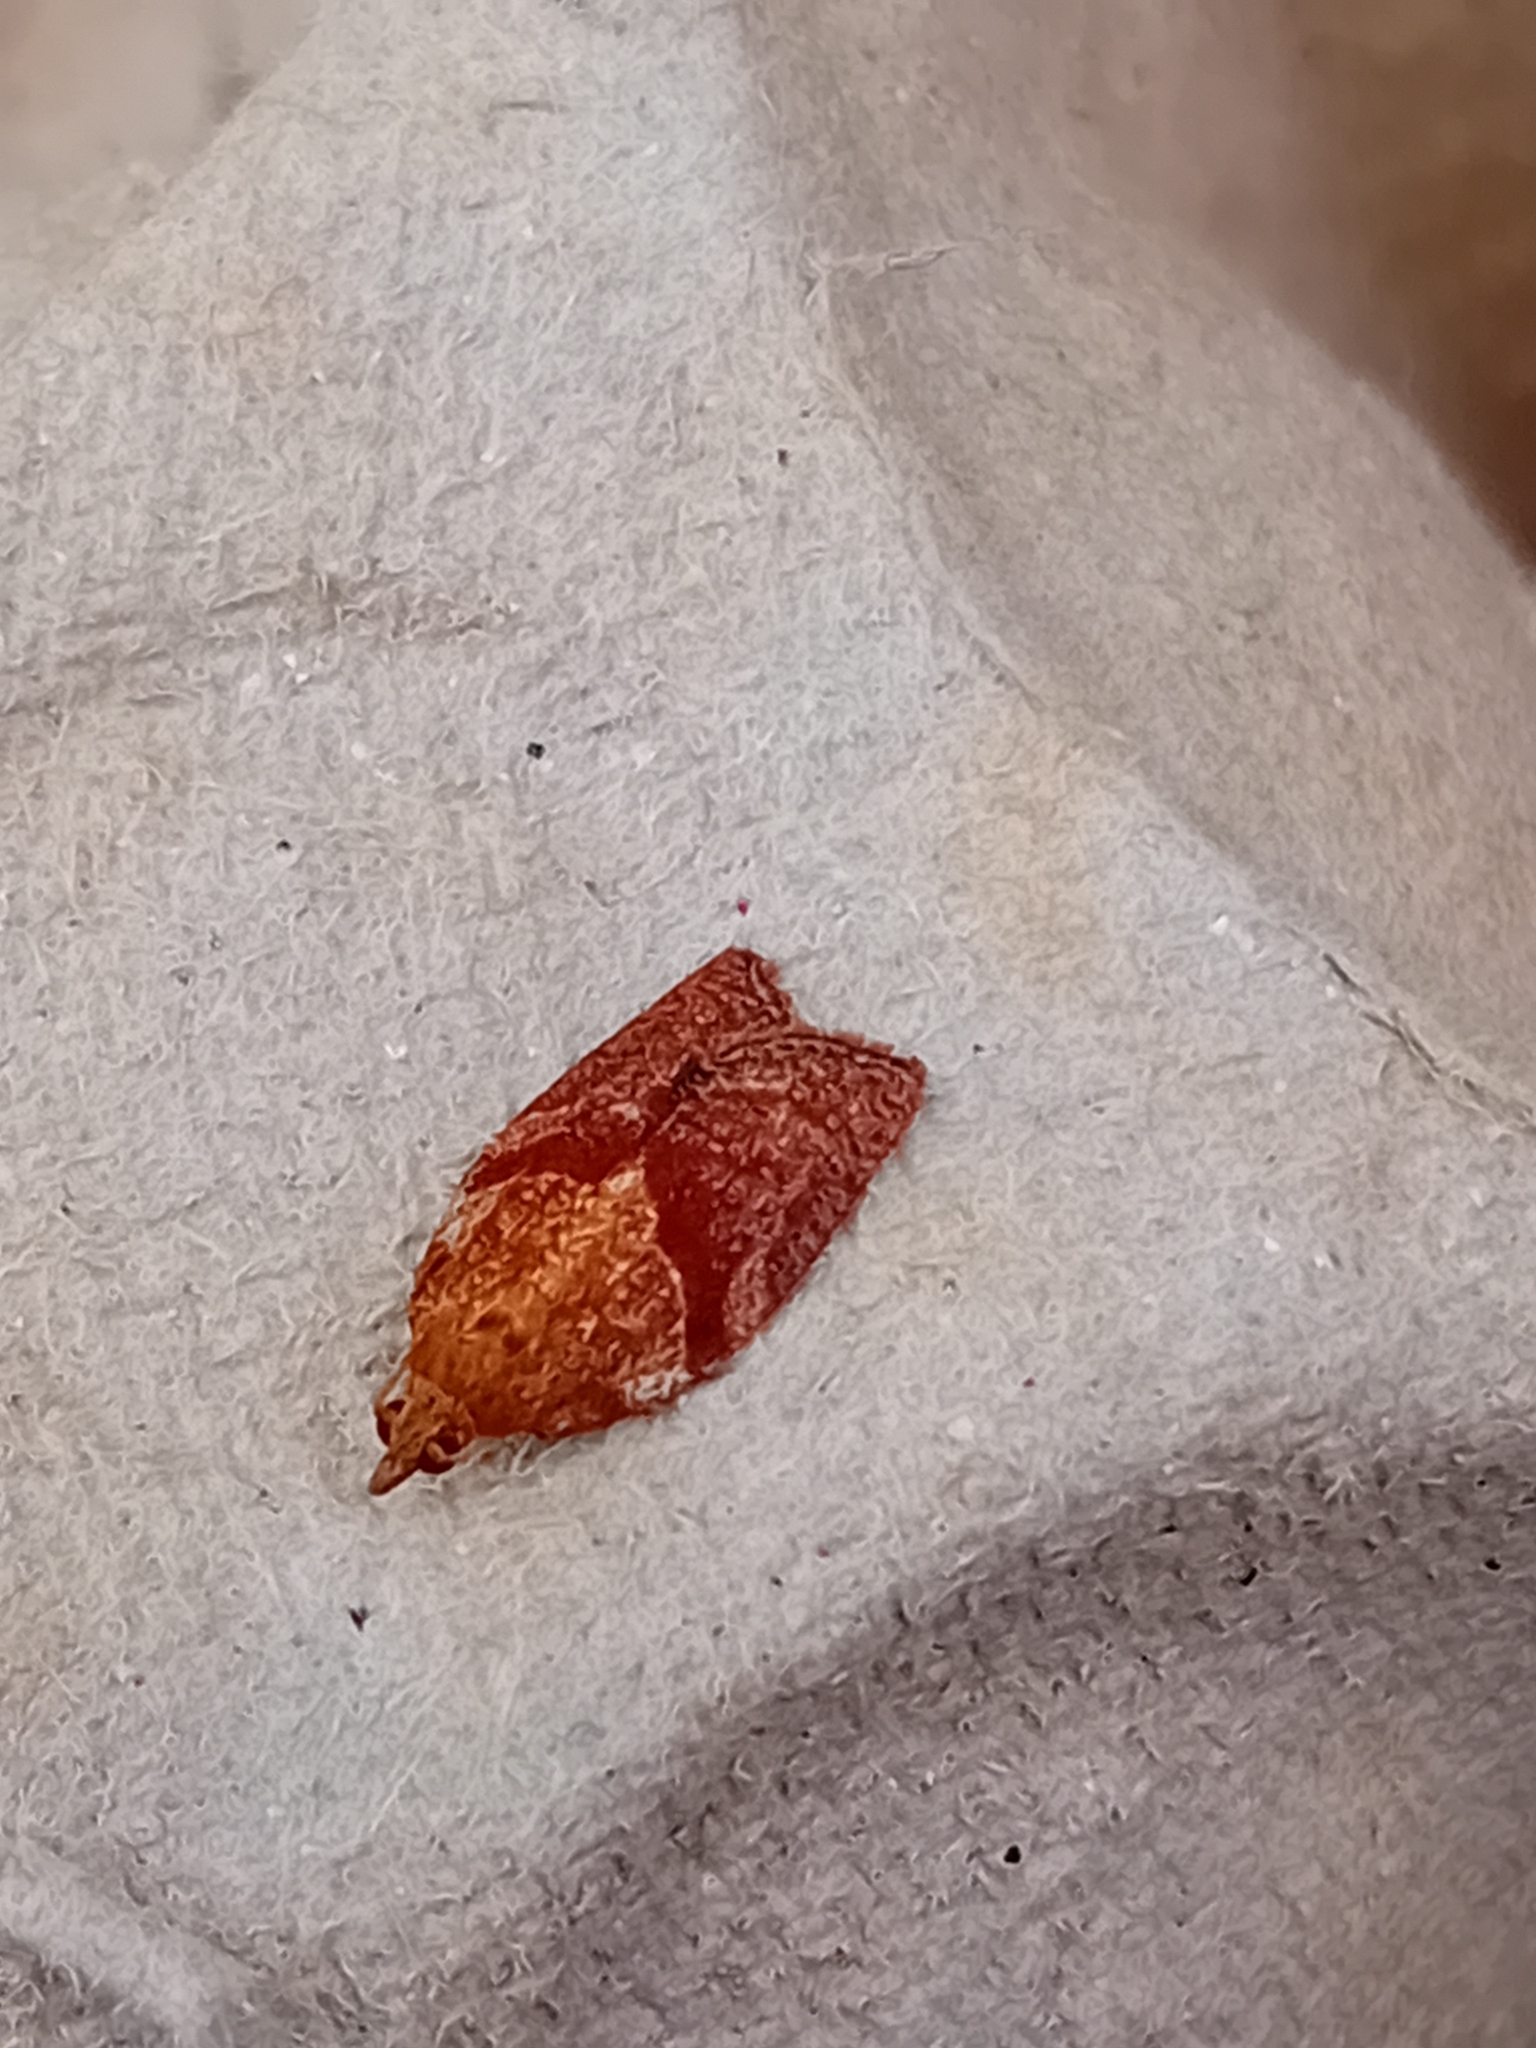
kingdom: Animalia
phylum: Arthropoda
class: Insecta
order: Lepidoptera
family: Tortricidae
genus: Epiphyas
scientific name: Epiphyas postvittana
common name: Light brown apple moth
